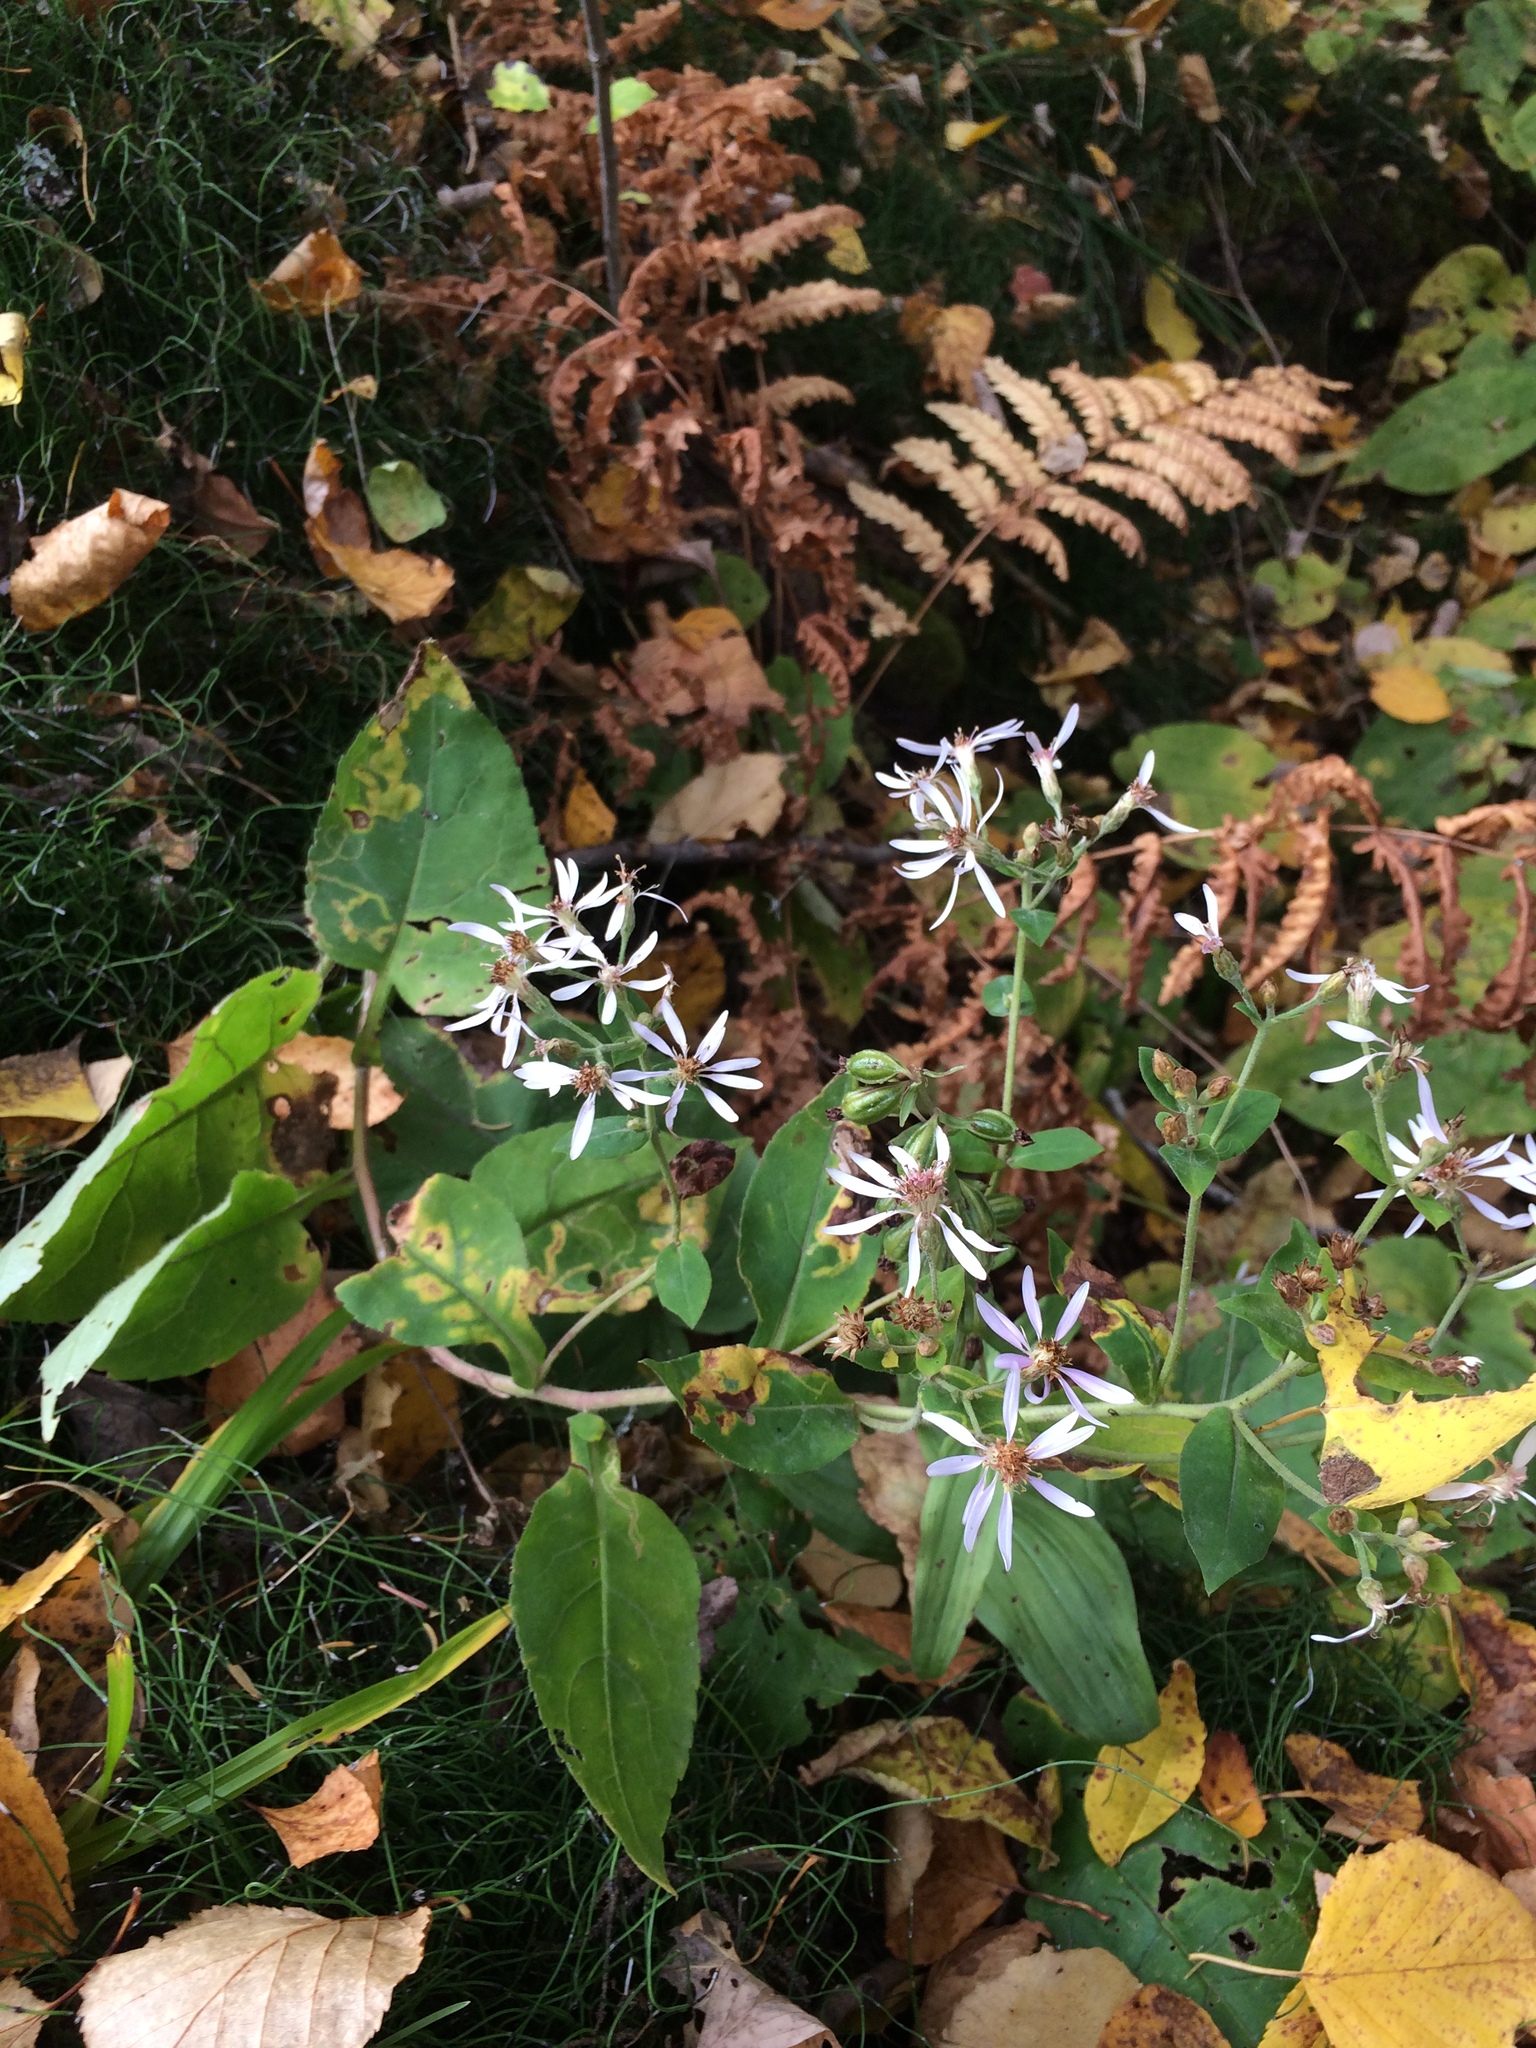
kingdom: Plantae
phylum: Tracheophyta
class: Magnoliopsida
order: Asterales
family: Asteraceae
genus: Eurybia
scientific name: Eurybia macrophylla
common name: Big-leaved aster
